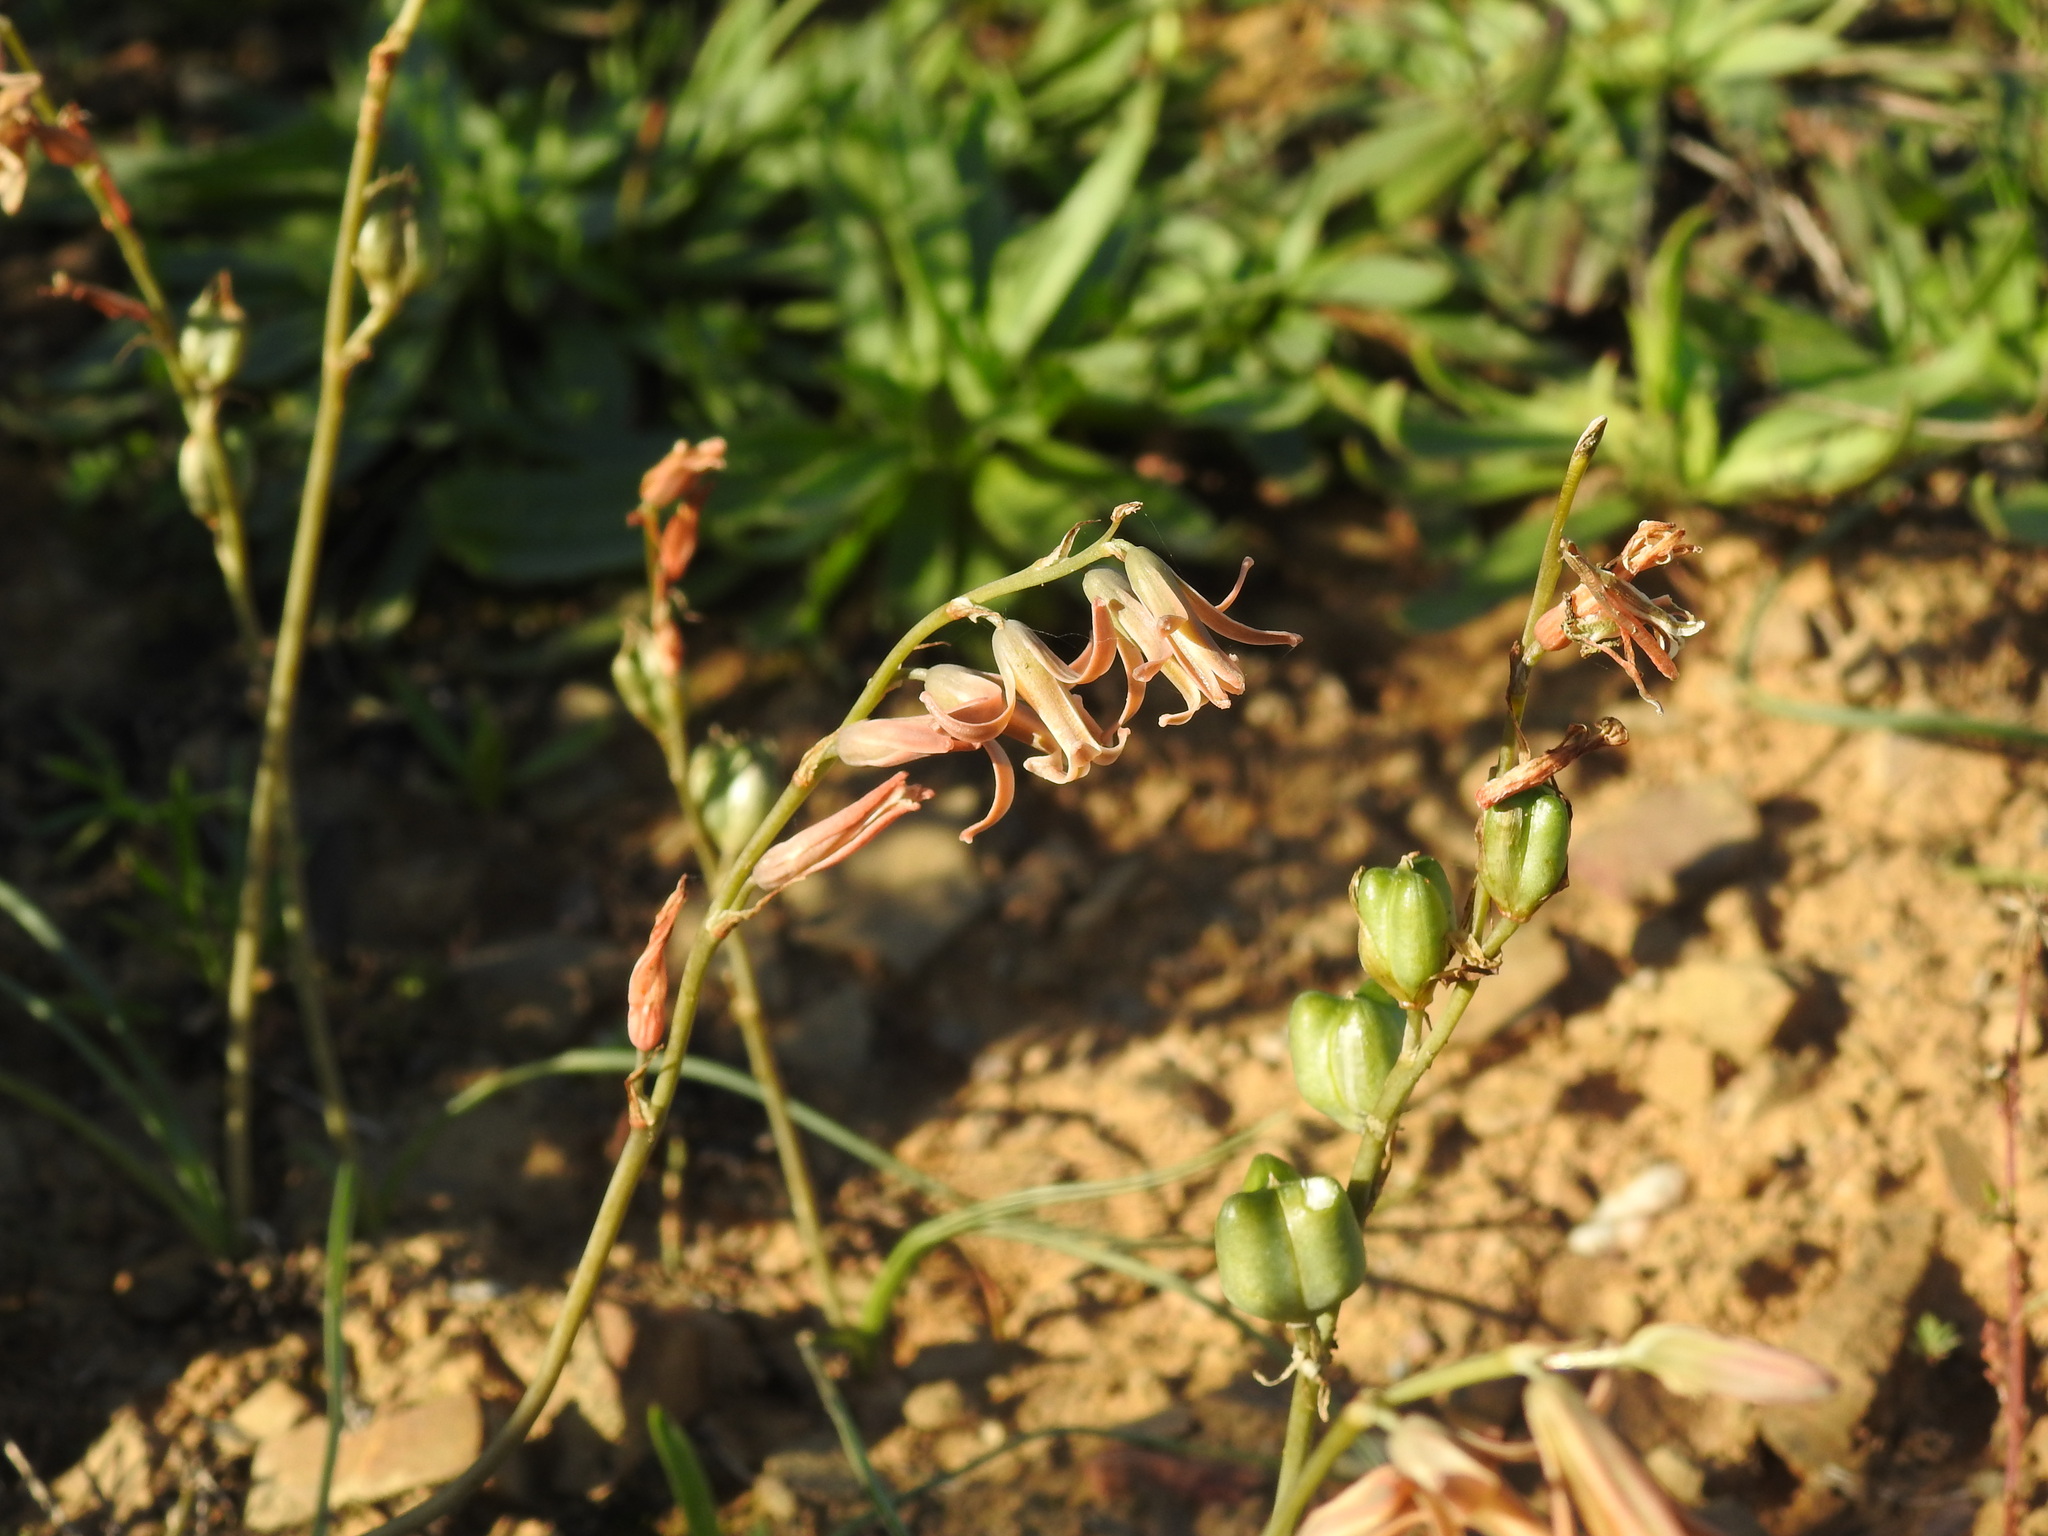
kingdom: Plantae
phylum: Tracheophyta
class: Liliopsida
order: Asparagales
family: Asparagaceae
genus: Dipcadi
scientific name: Dipcadi serotinum
